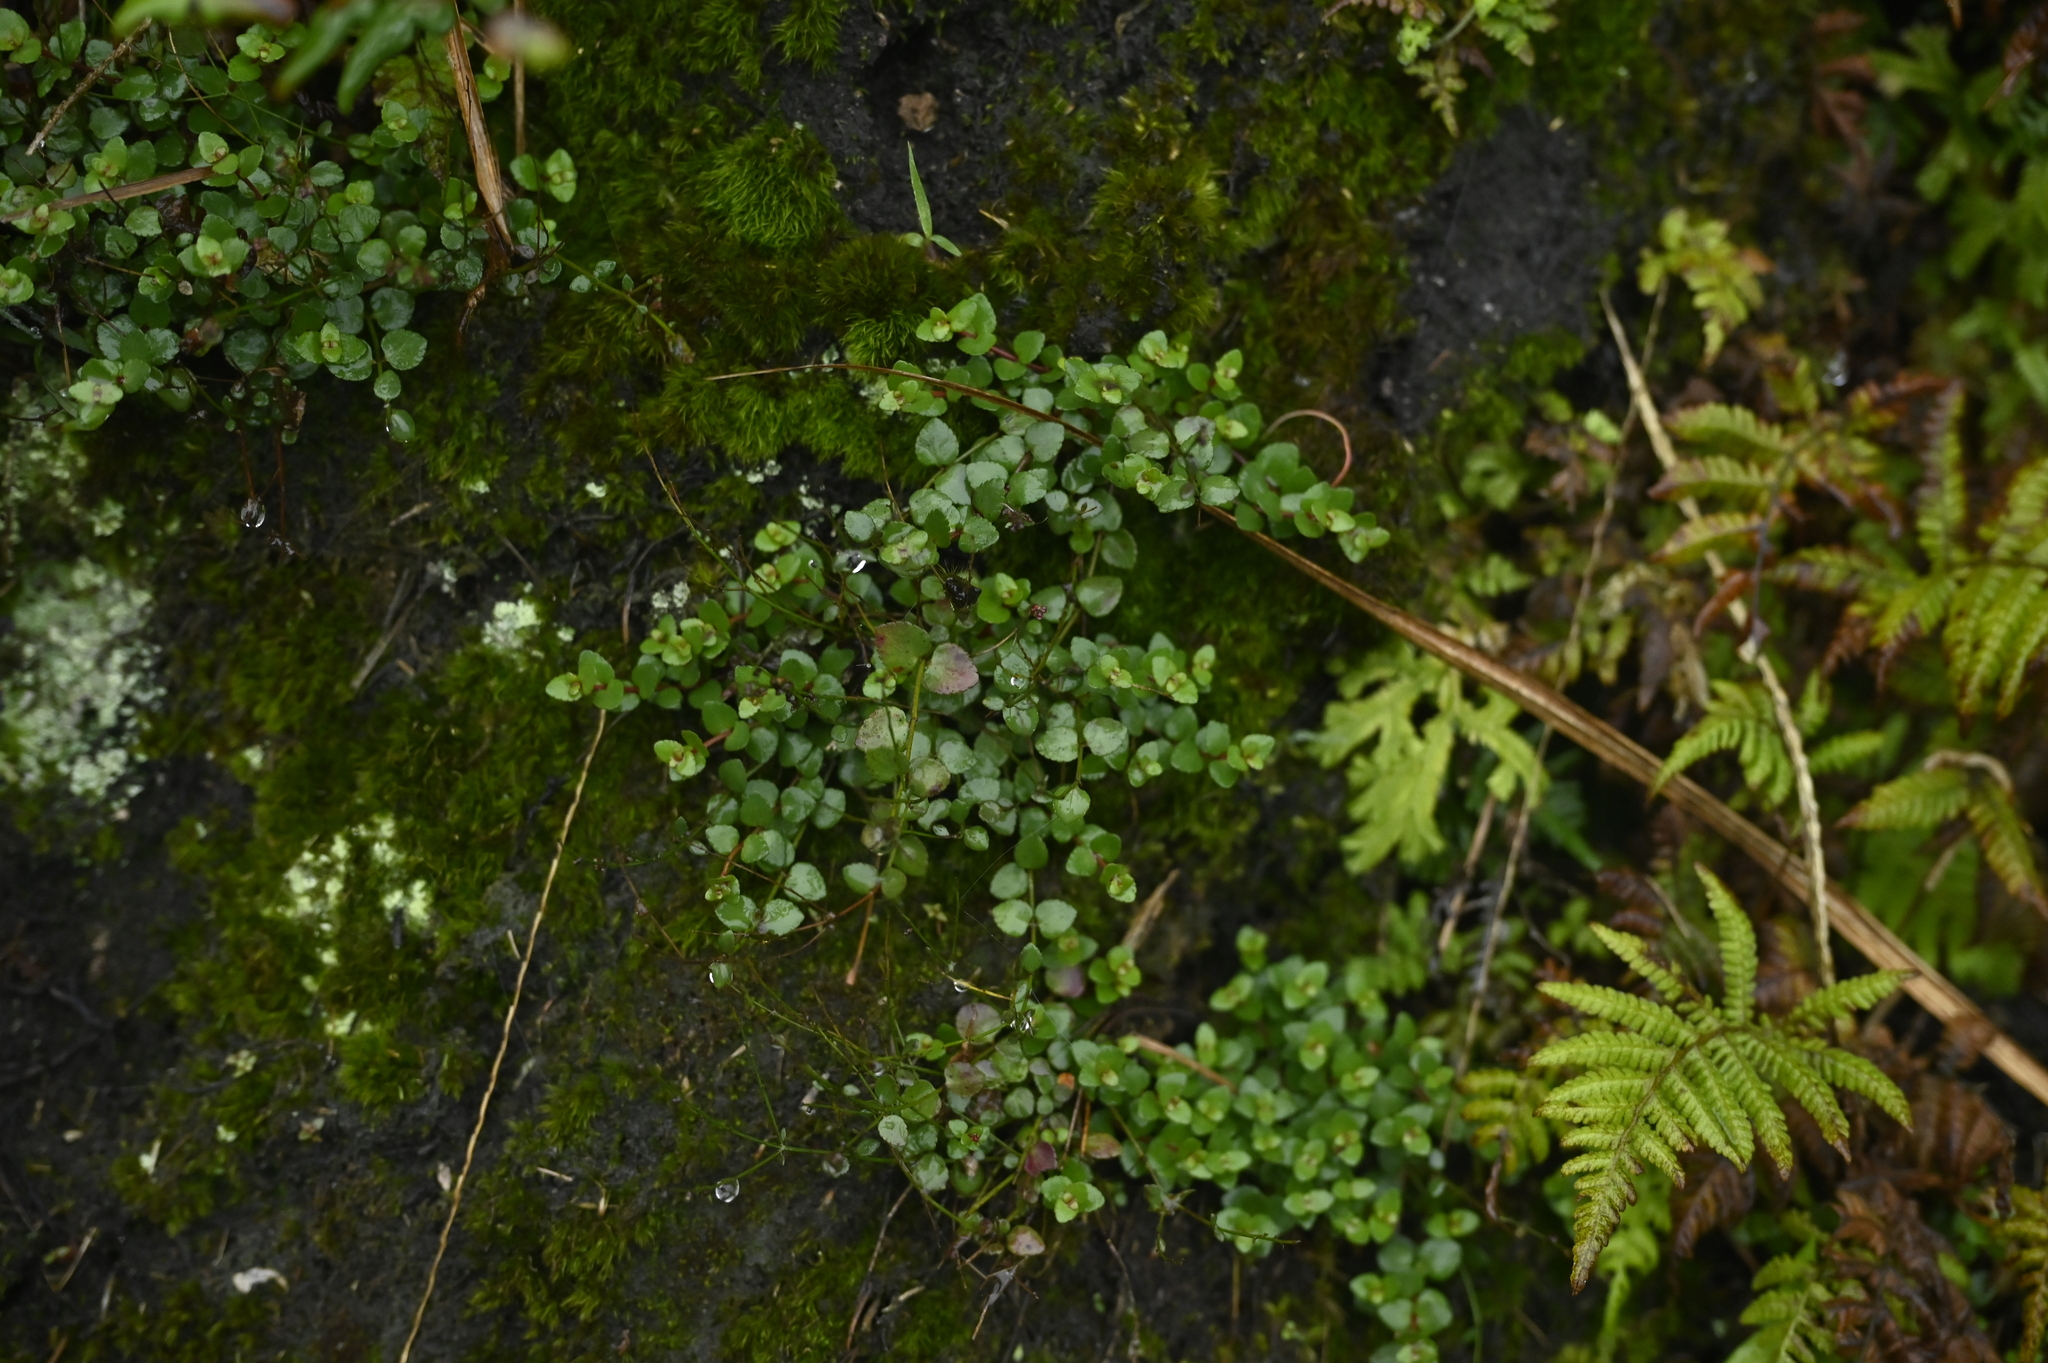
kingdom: Plantae
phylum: Tracheophyta
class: Magnoliopsida
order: Saxifragales
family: Haloragaceae
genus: Gonocarpus
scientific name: Gonocarpus micranthus
